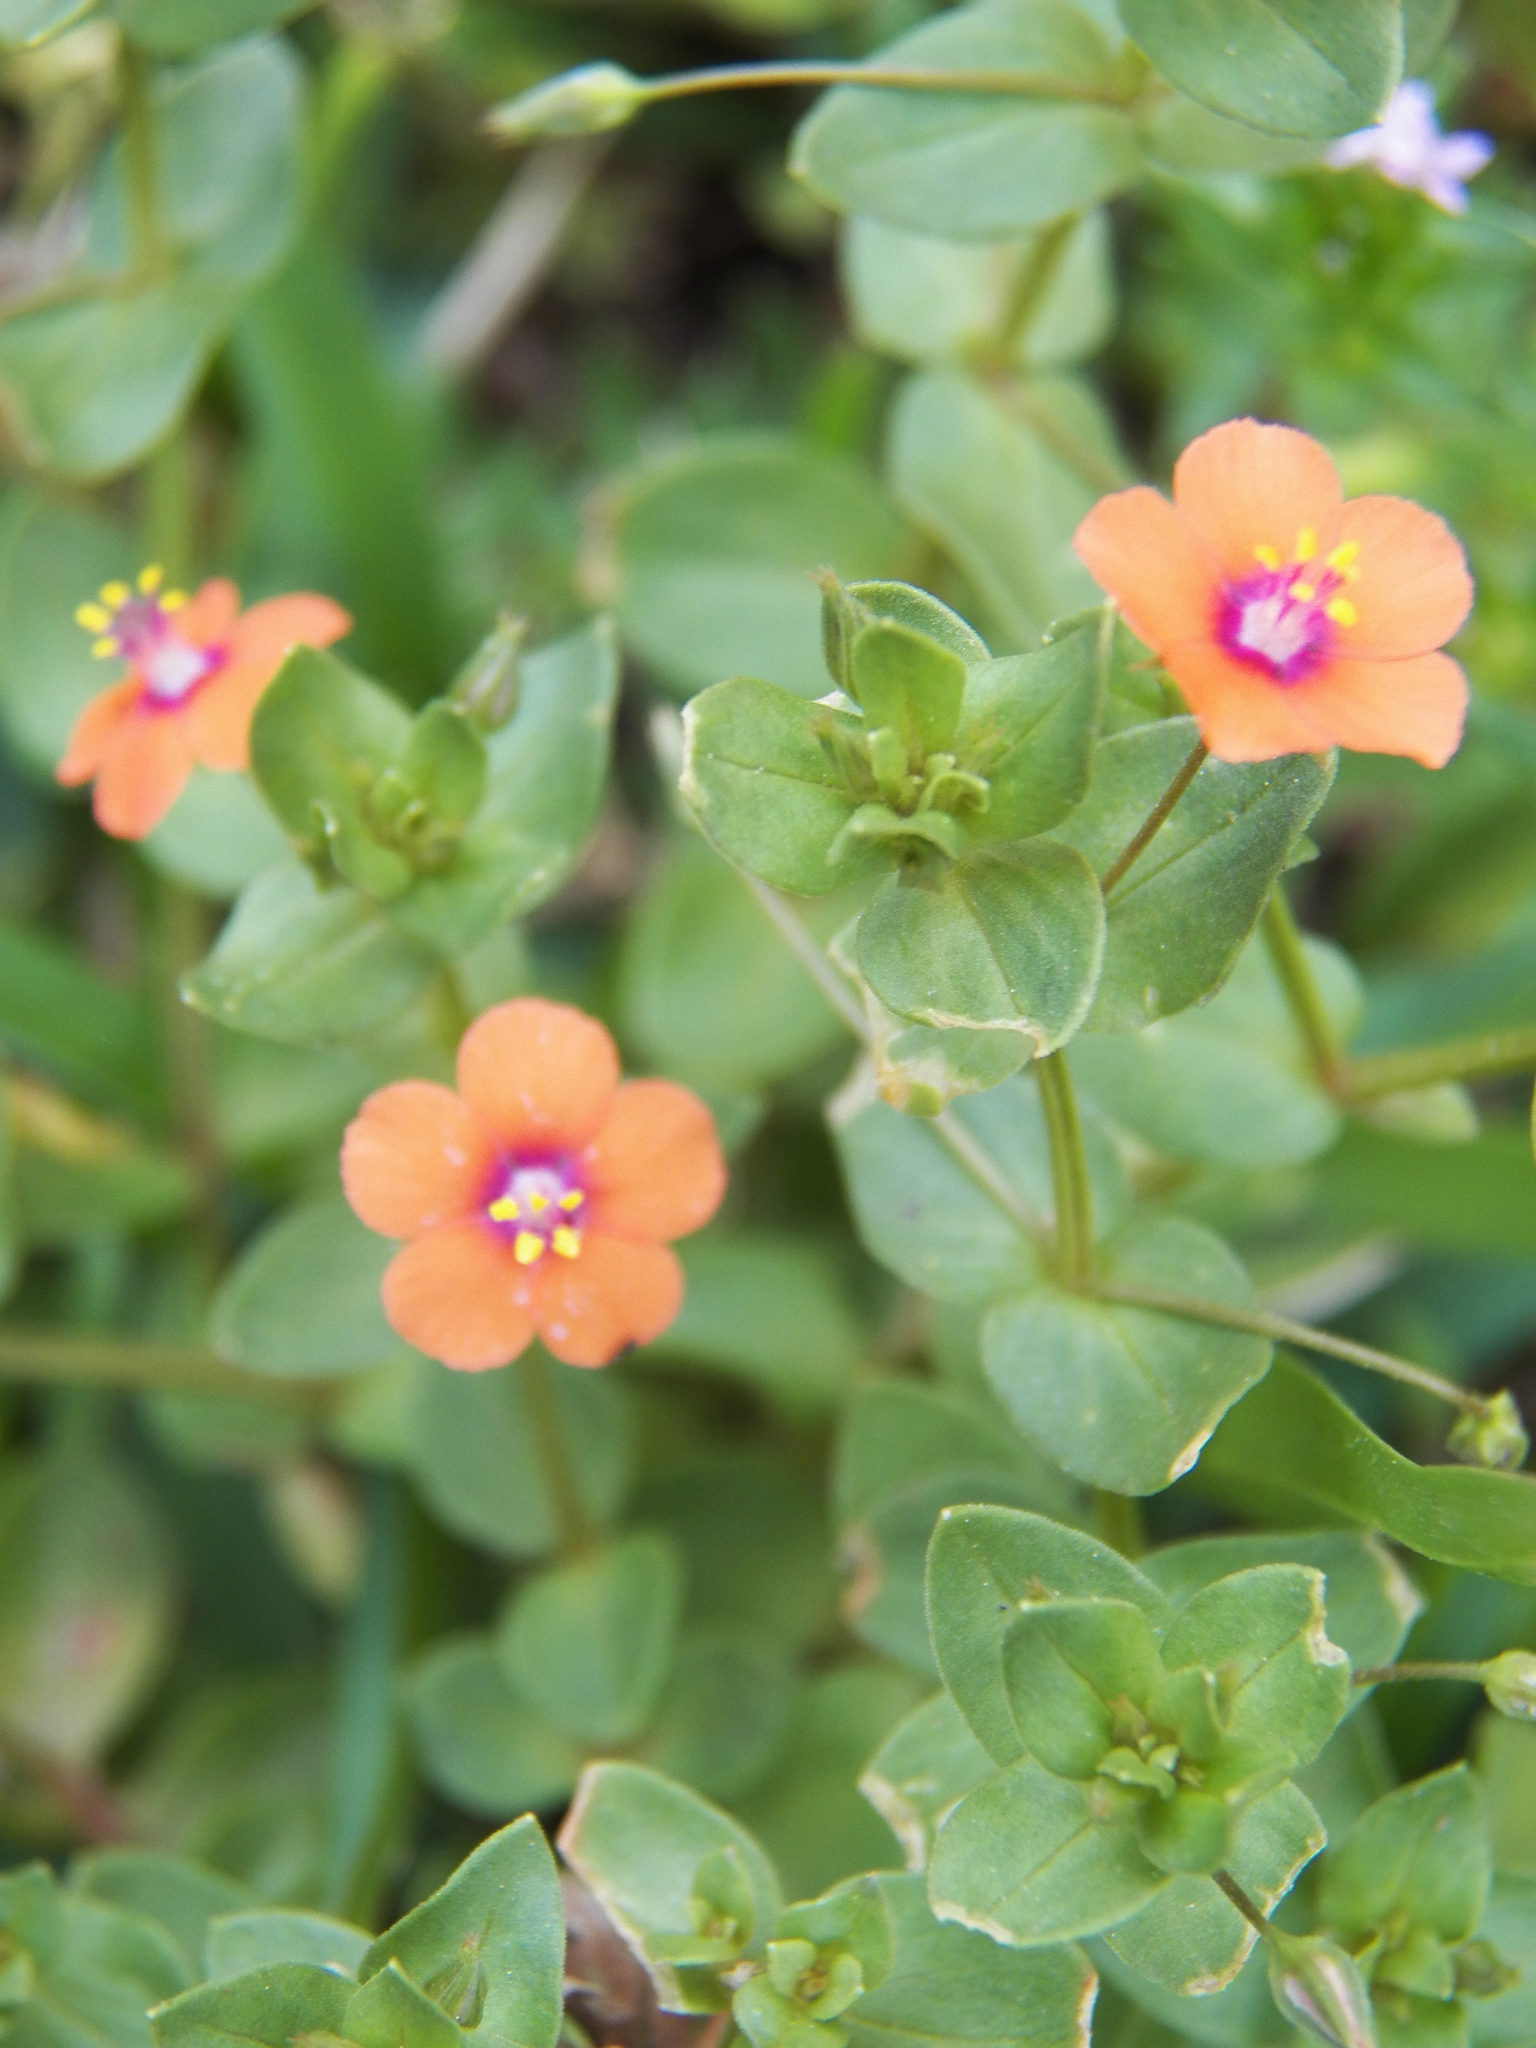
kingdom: Plantae
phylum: Tracheophyta
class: Magnoliopsida
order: Ericales
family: Primulaceae
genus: Lysimachia
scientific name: Lysimachia arvensis
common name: Scarlet pimpernel
